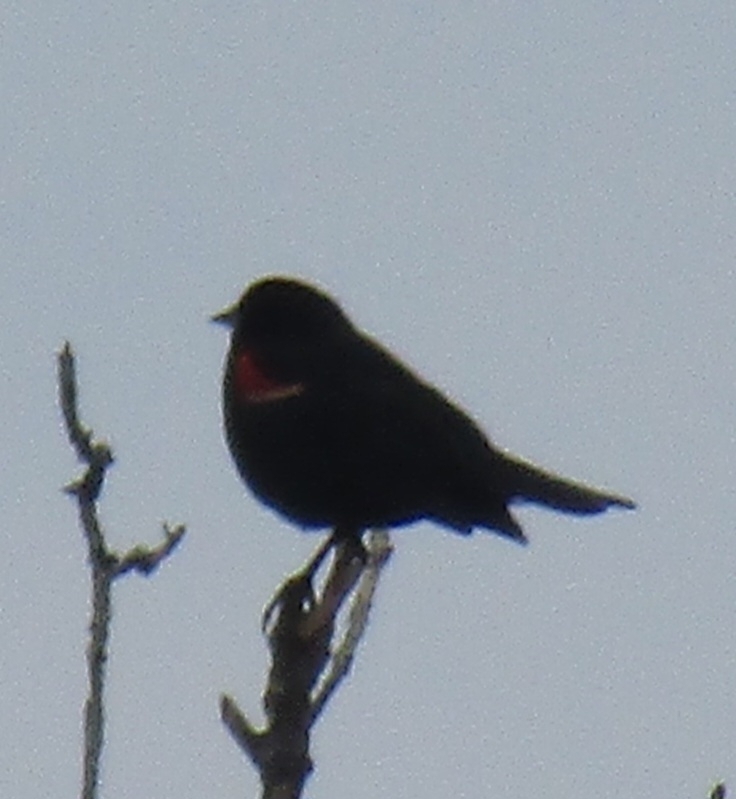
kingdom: Animalia
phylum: Chordata
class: Aves
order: Passeriformes
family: Icteridae
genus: Agelaius
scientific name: Agelaius phoeniceus
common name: Red-winged blackbird
